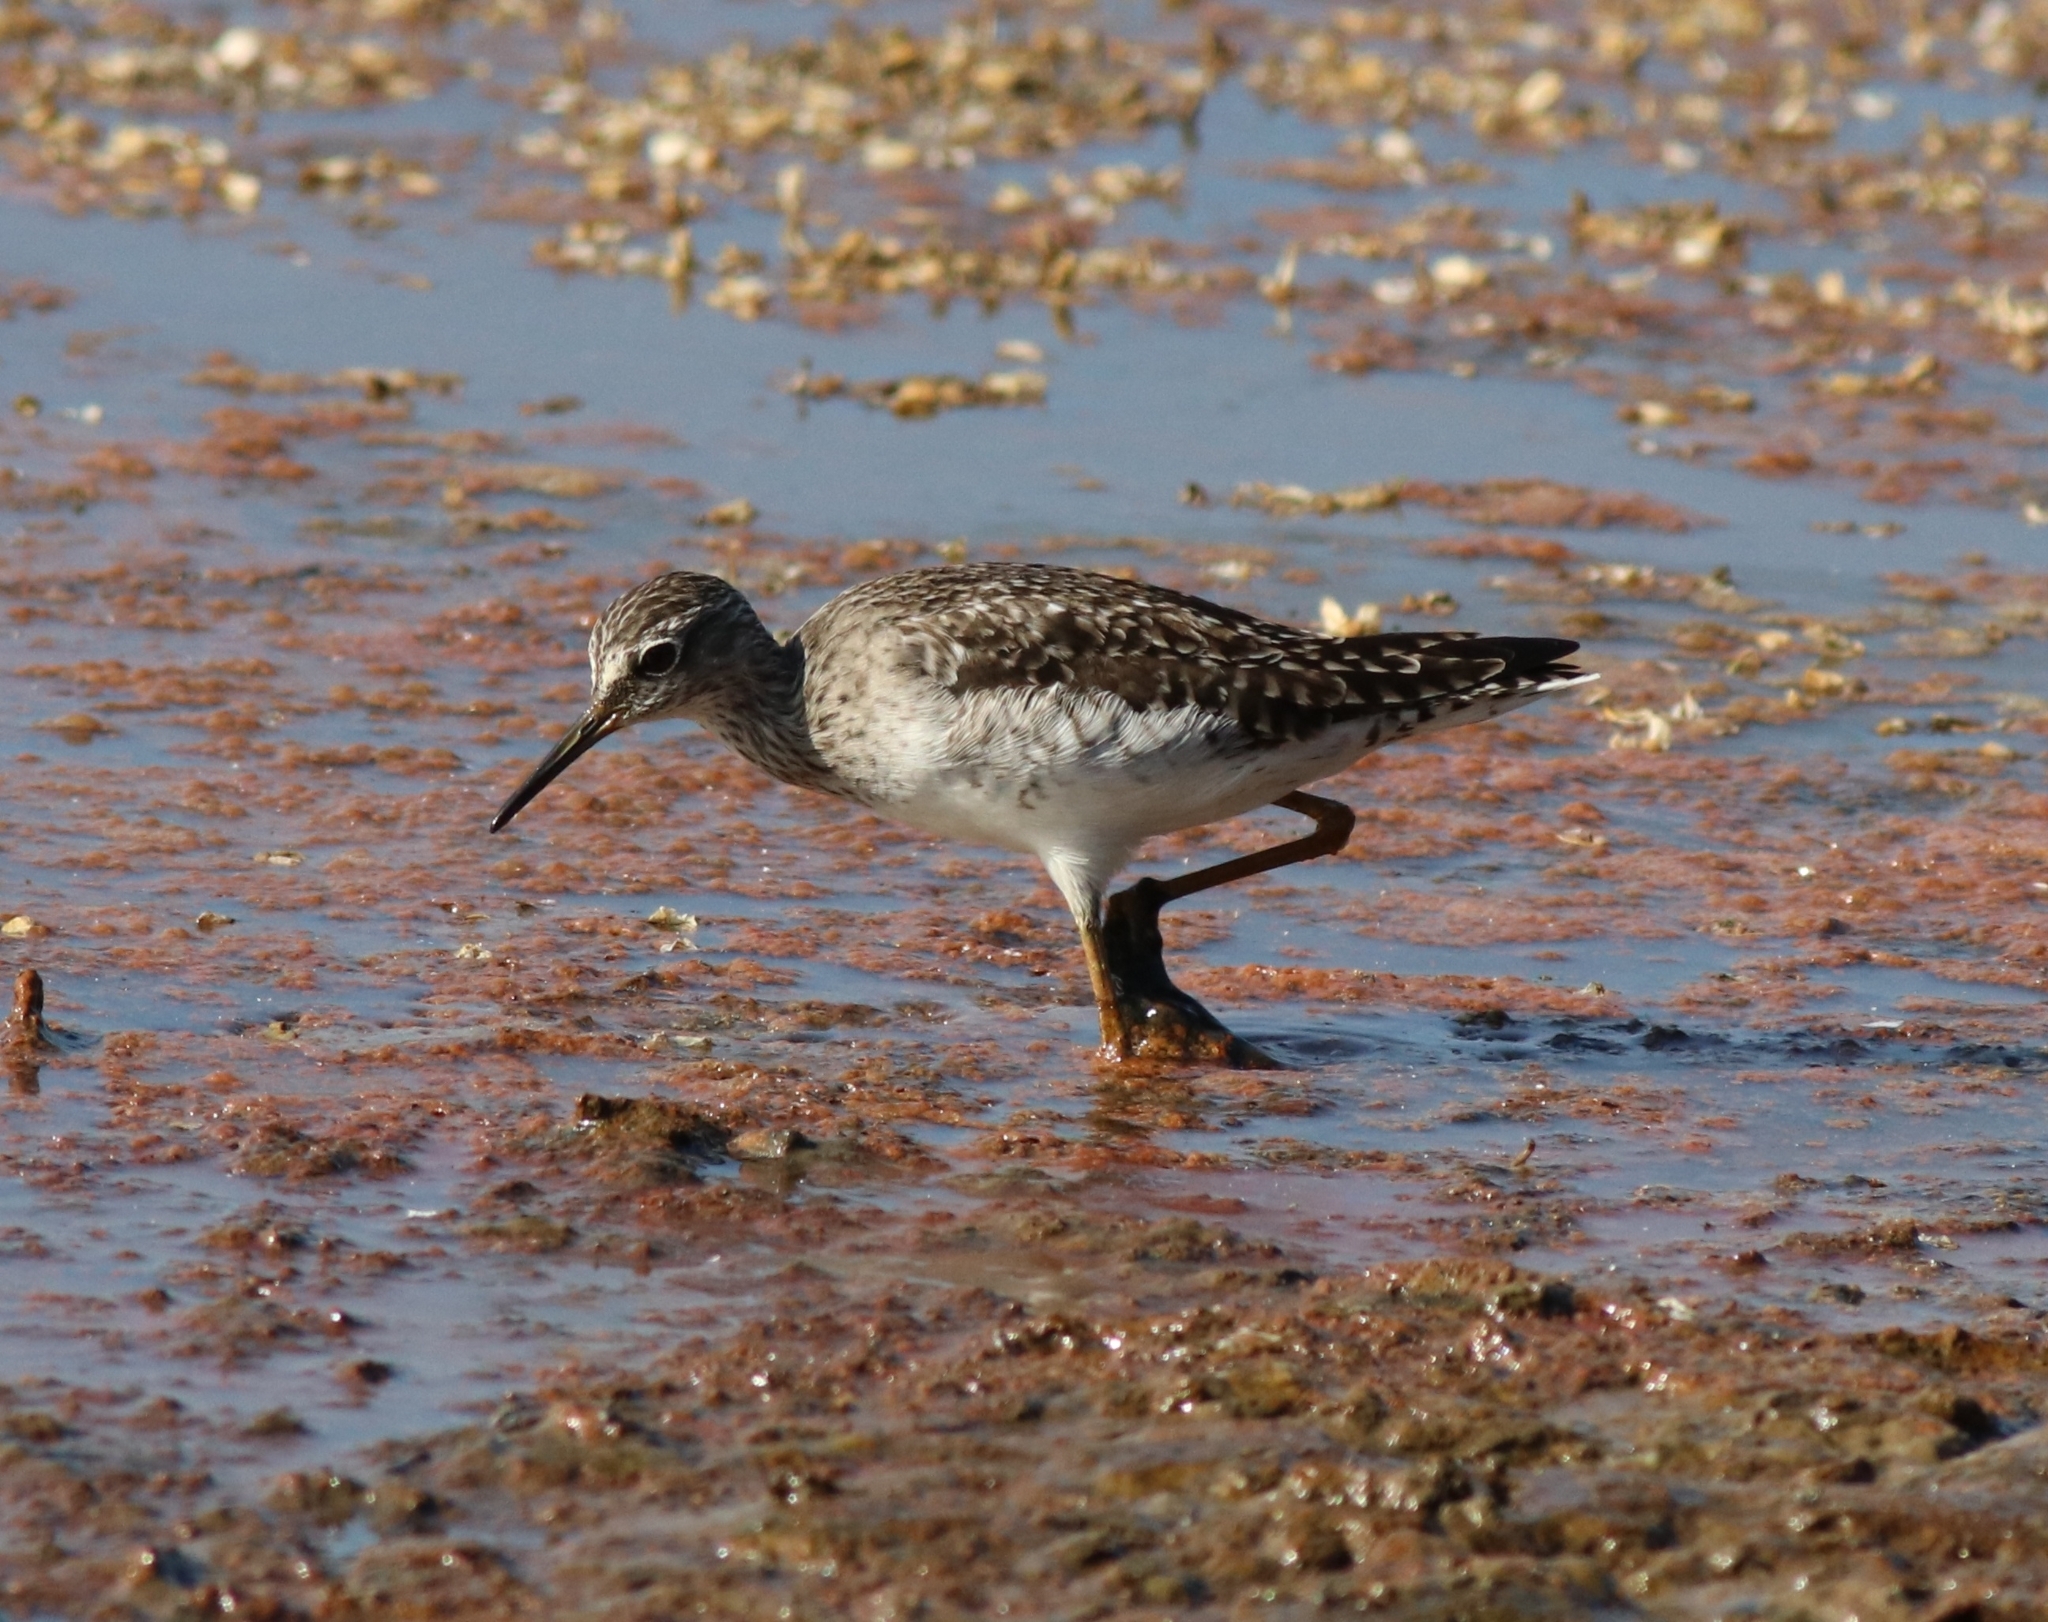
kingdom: Animalia
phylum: Chordata
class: Aves
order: Charadriiformes
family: Scolopacidae
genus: Tringa
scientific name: Tringa glareola
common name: Wood sandpiper
